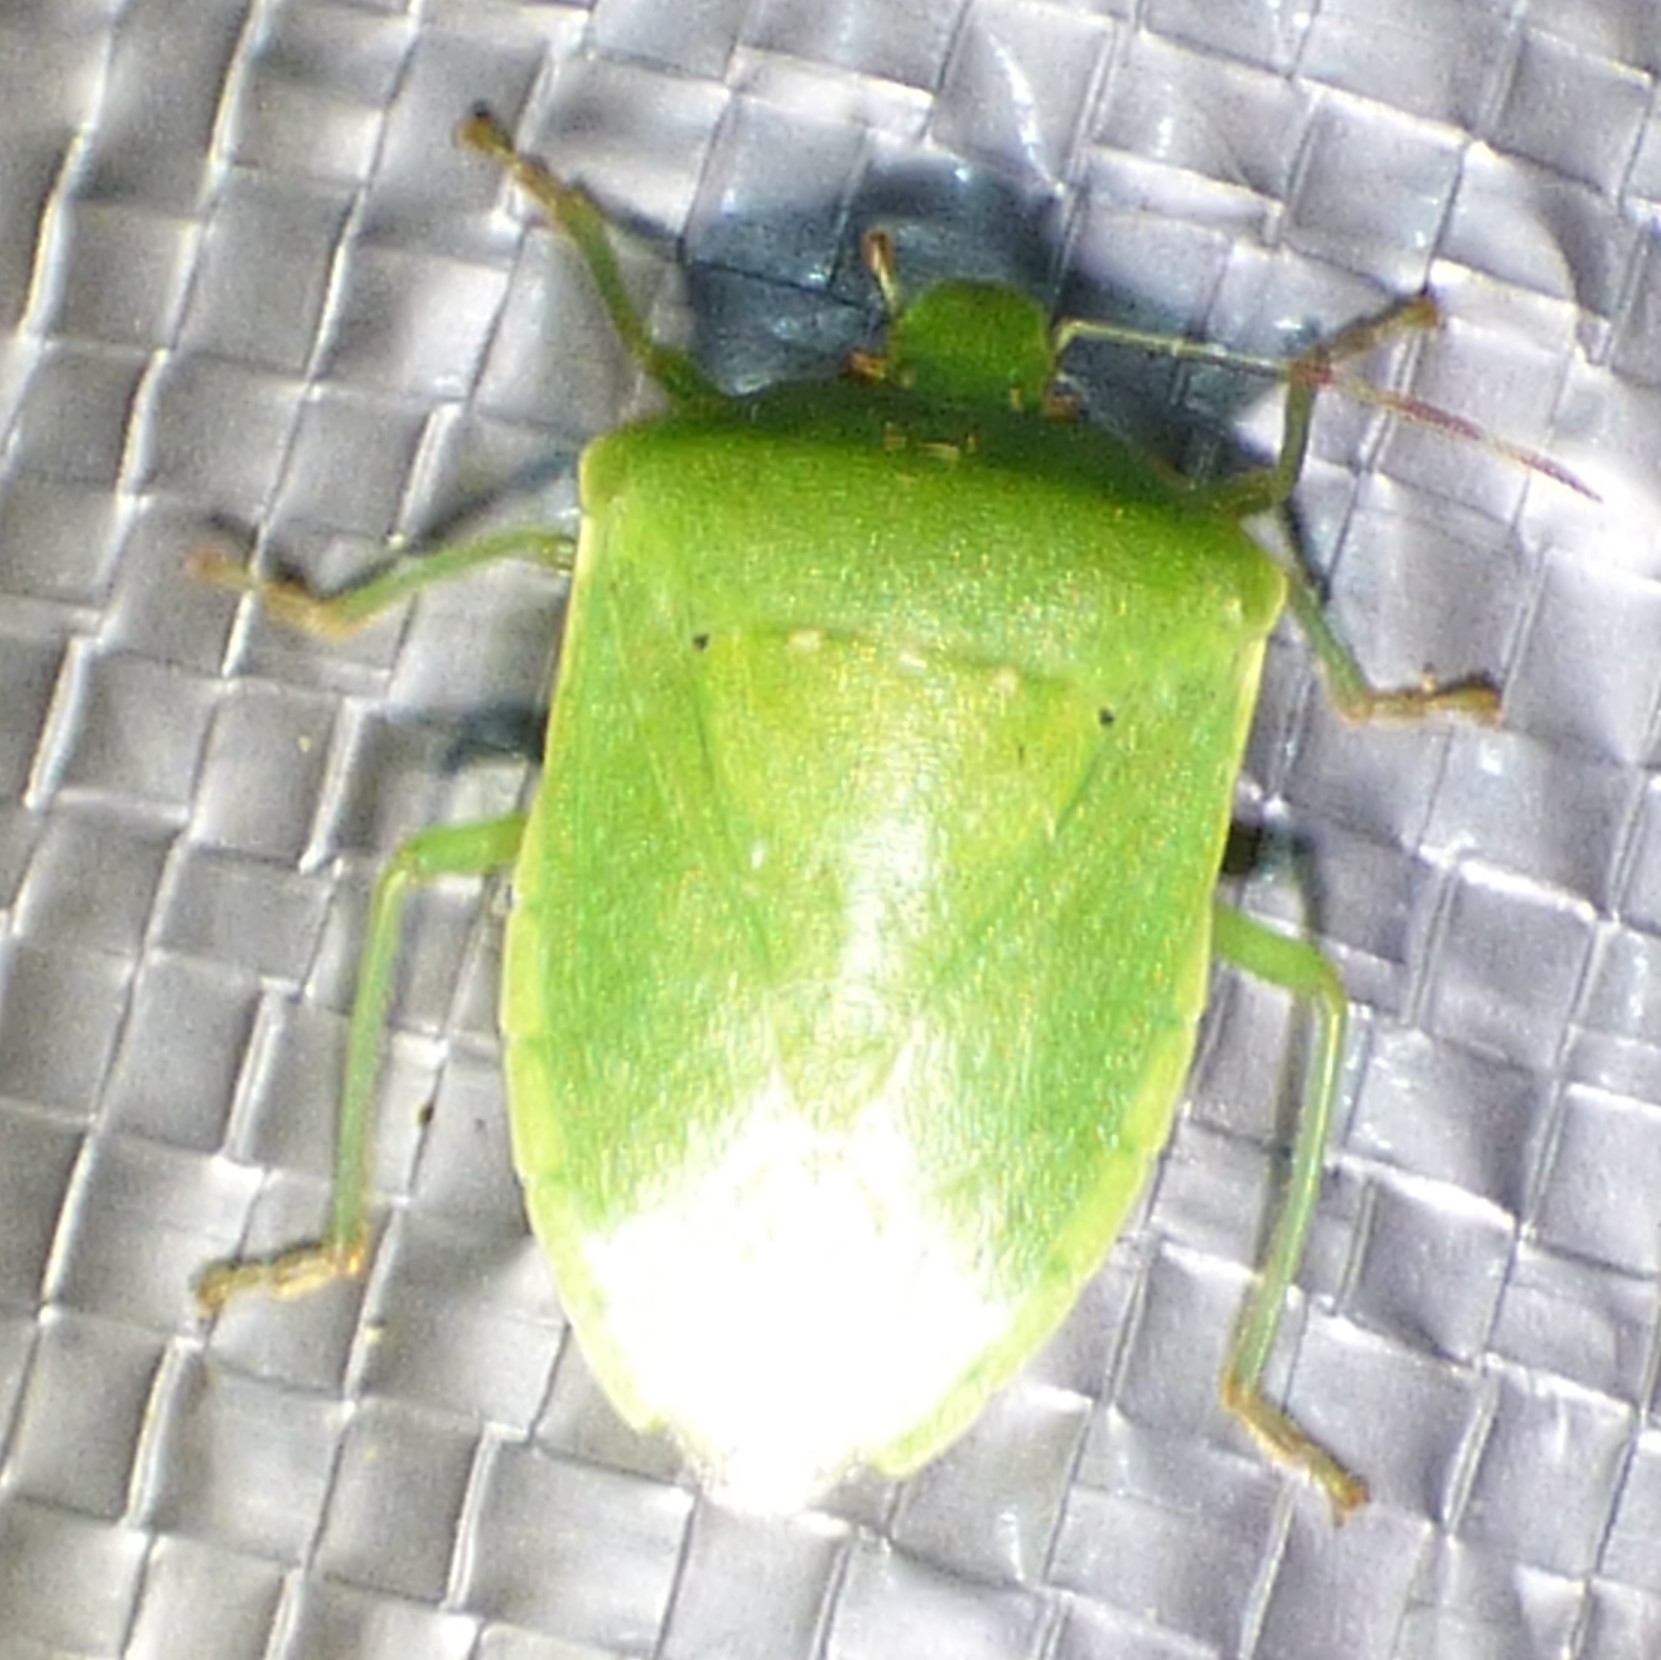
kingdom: Animalia
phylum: Arthropoda
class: Insecta
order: Hemiptera
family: Pentatomidae
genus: Nezara
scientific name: Nezara viridula
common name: Southern green stink bug
